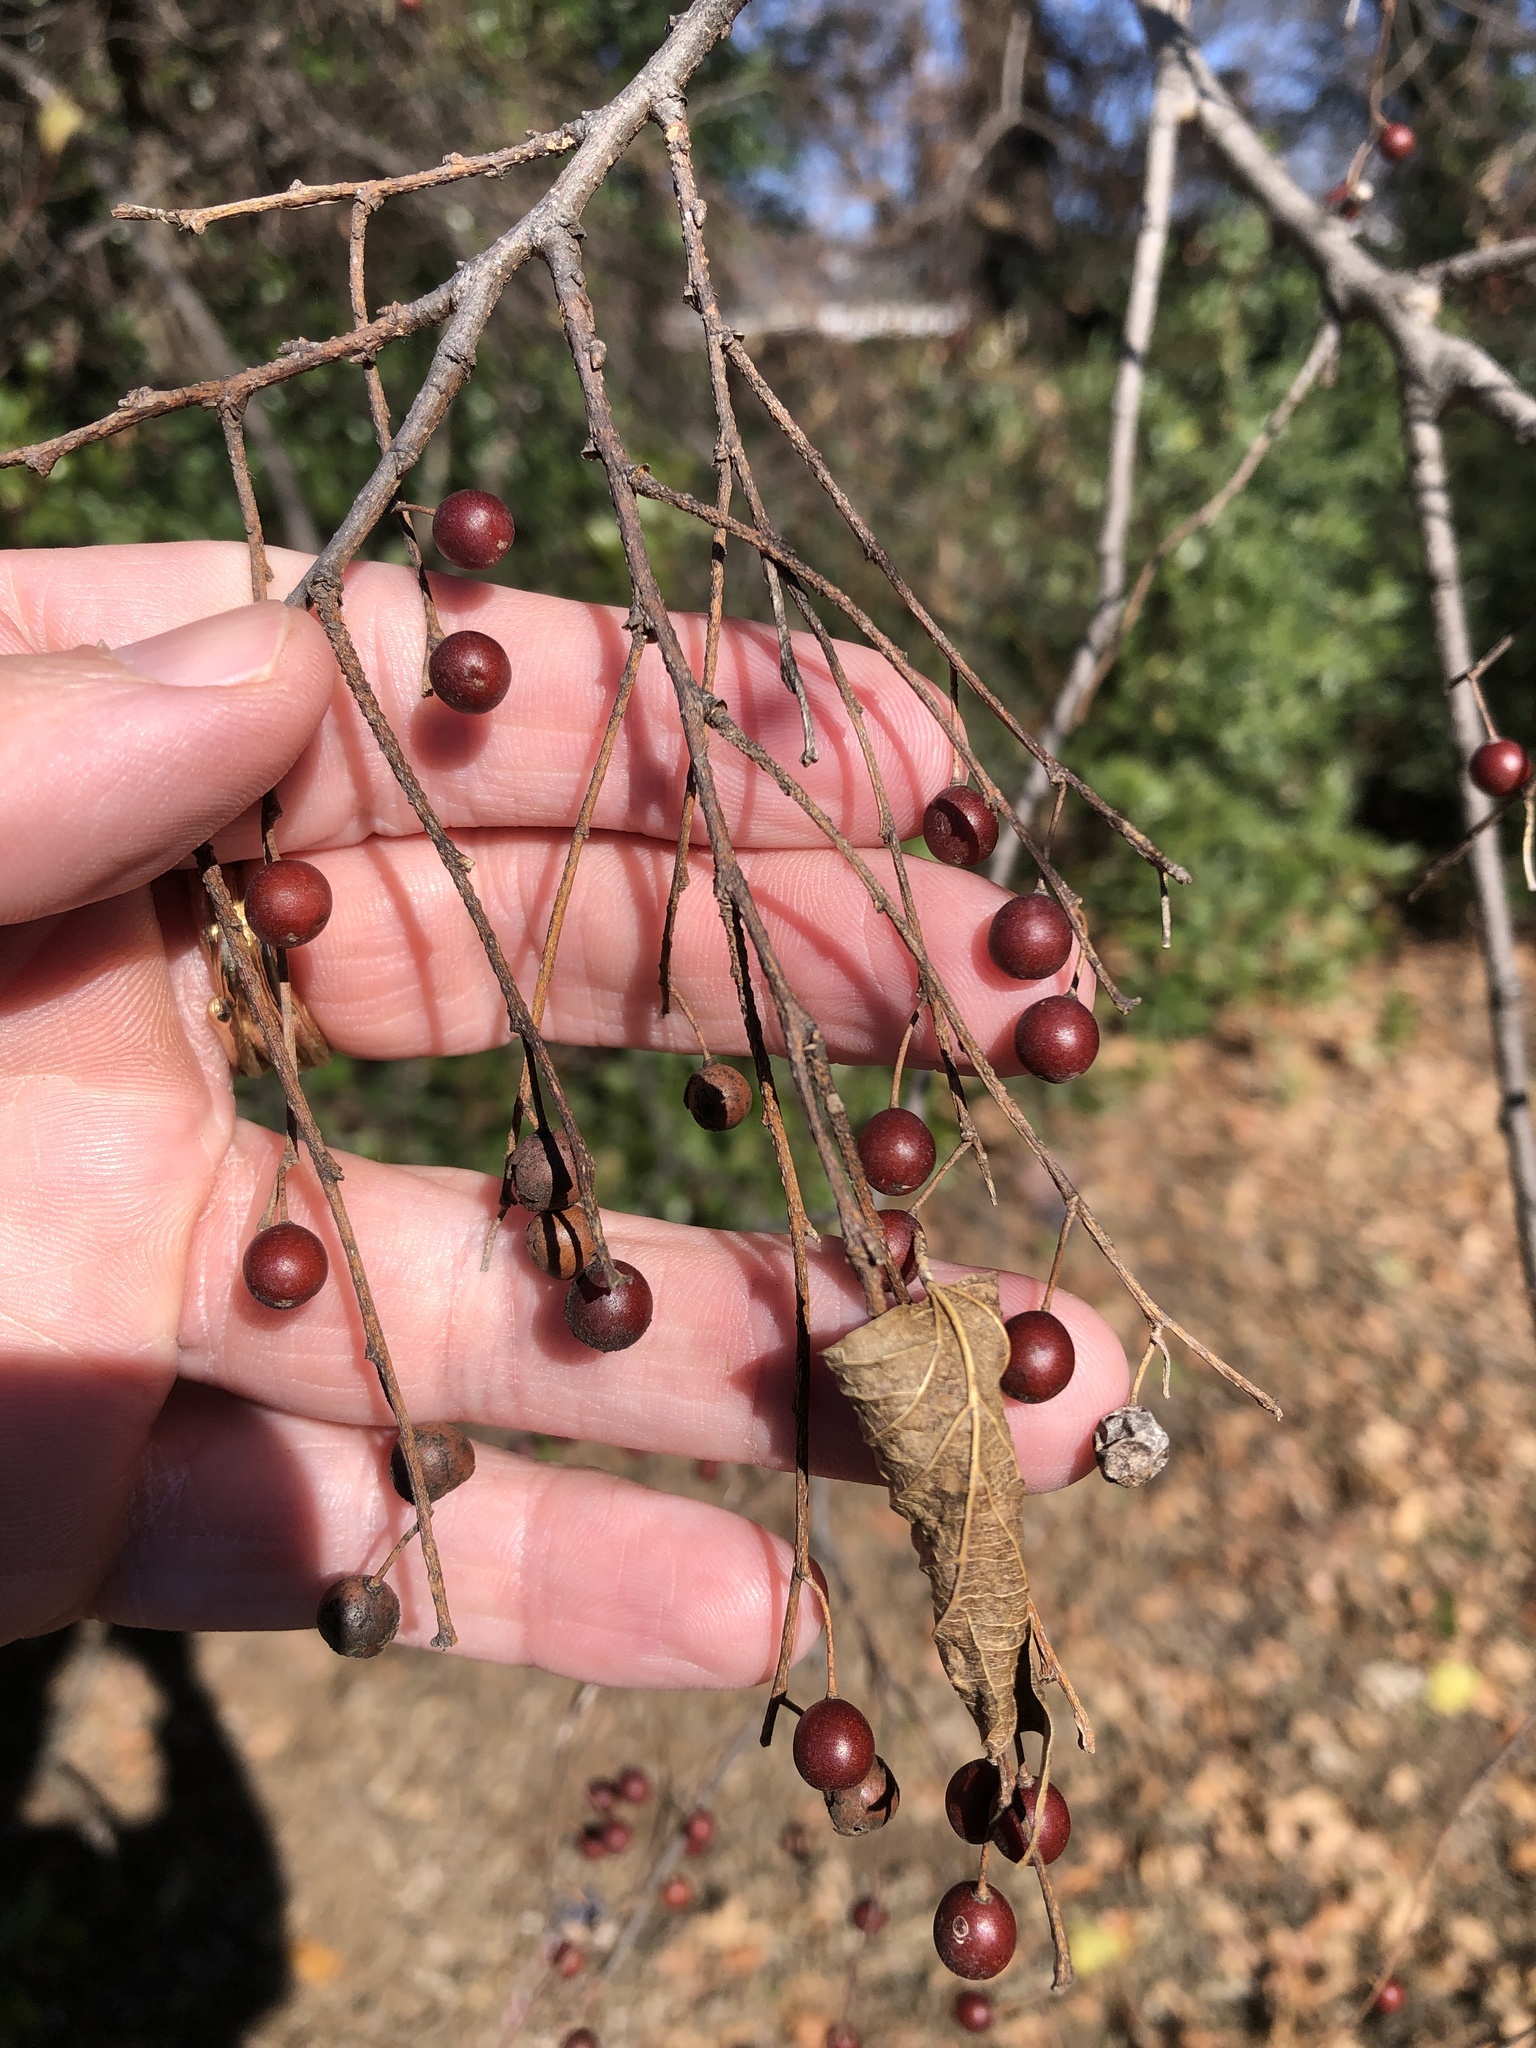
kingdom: Plantae
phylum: Tracheophyta
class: Magnoliopsida
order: Rosales
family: Cannabaceae
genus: Celtis
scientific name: Celtis laevigata
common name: Sugarberry
